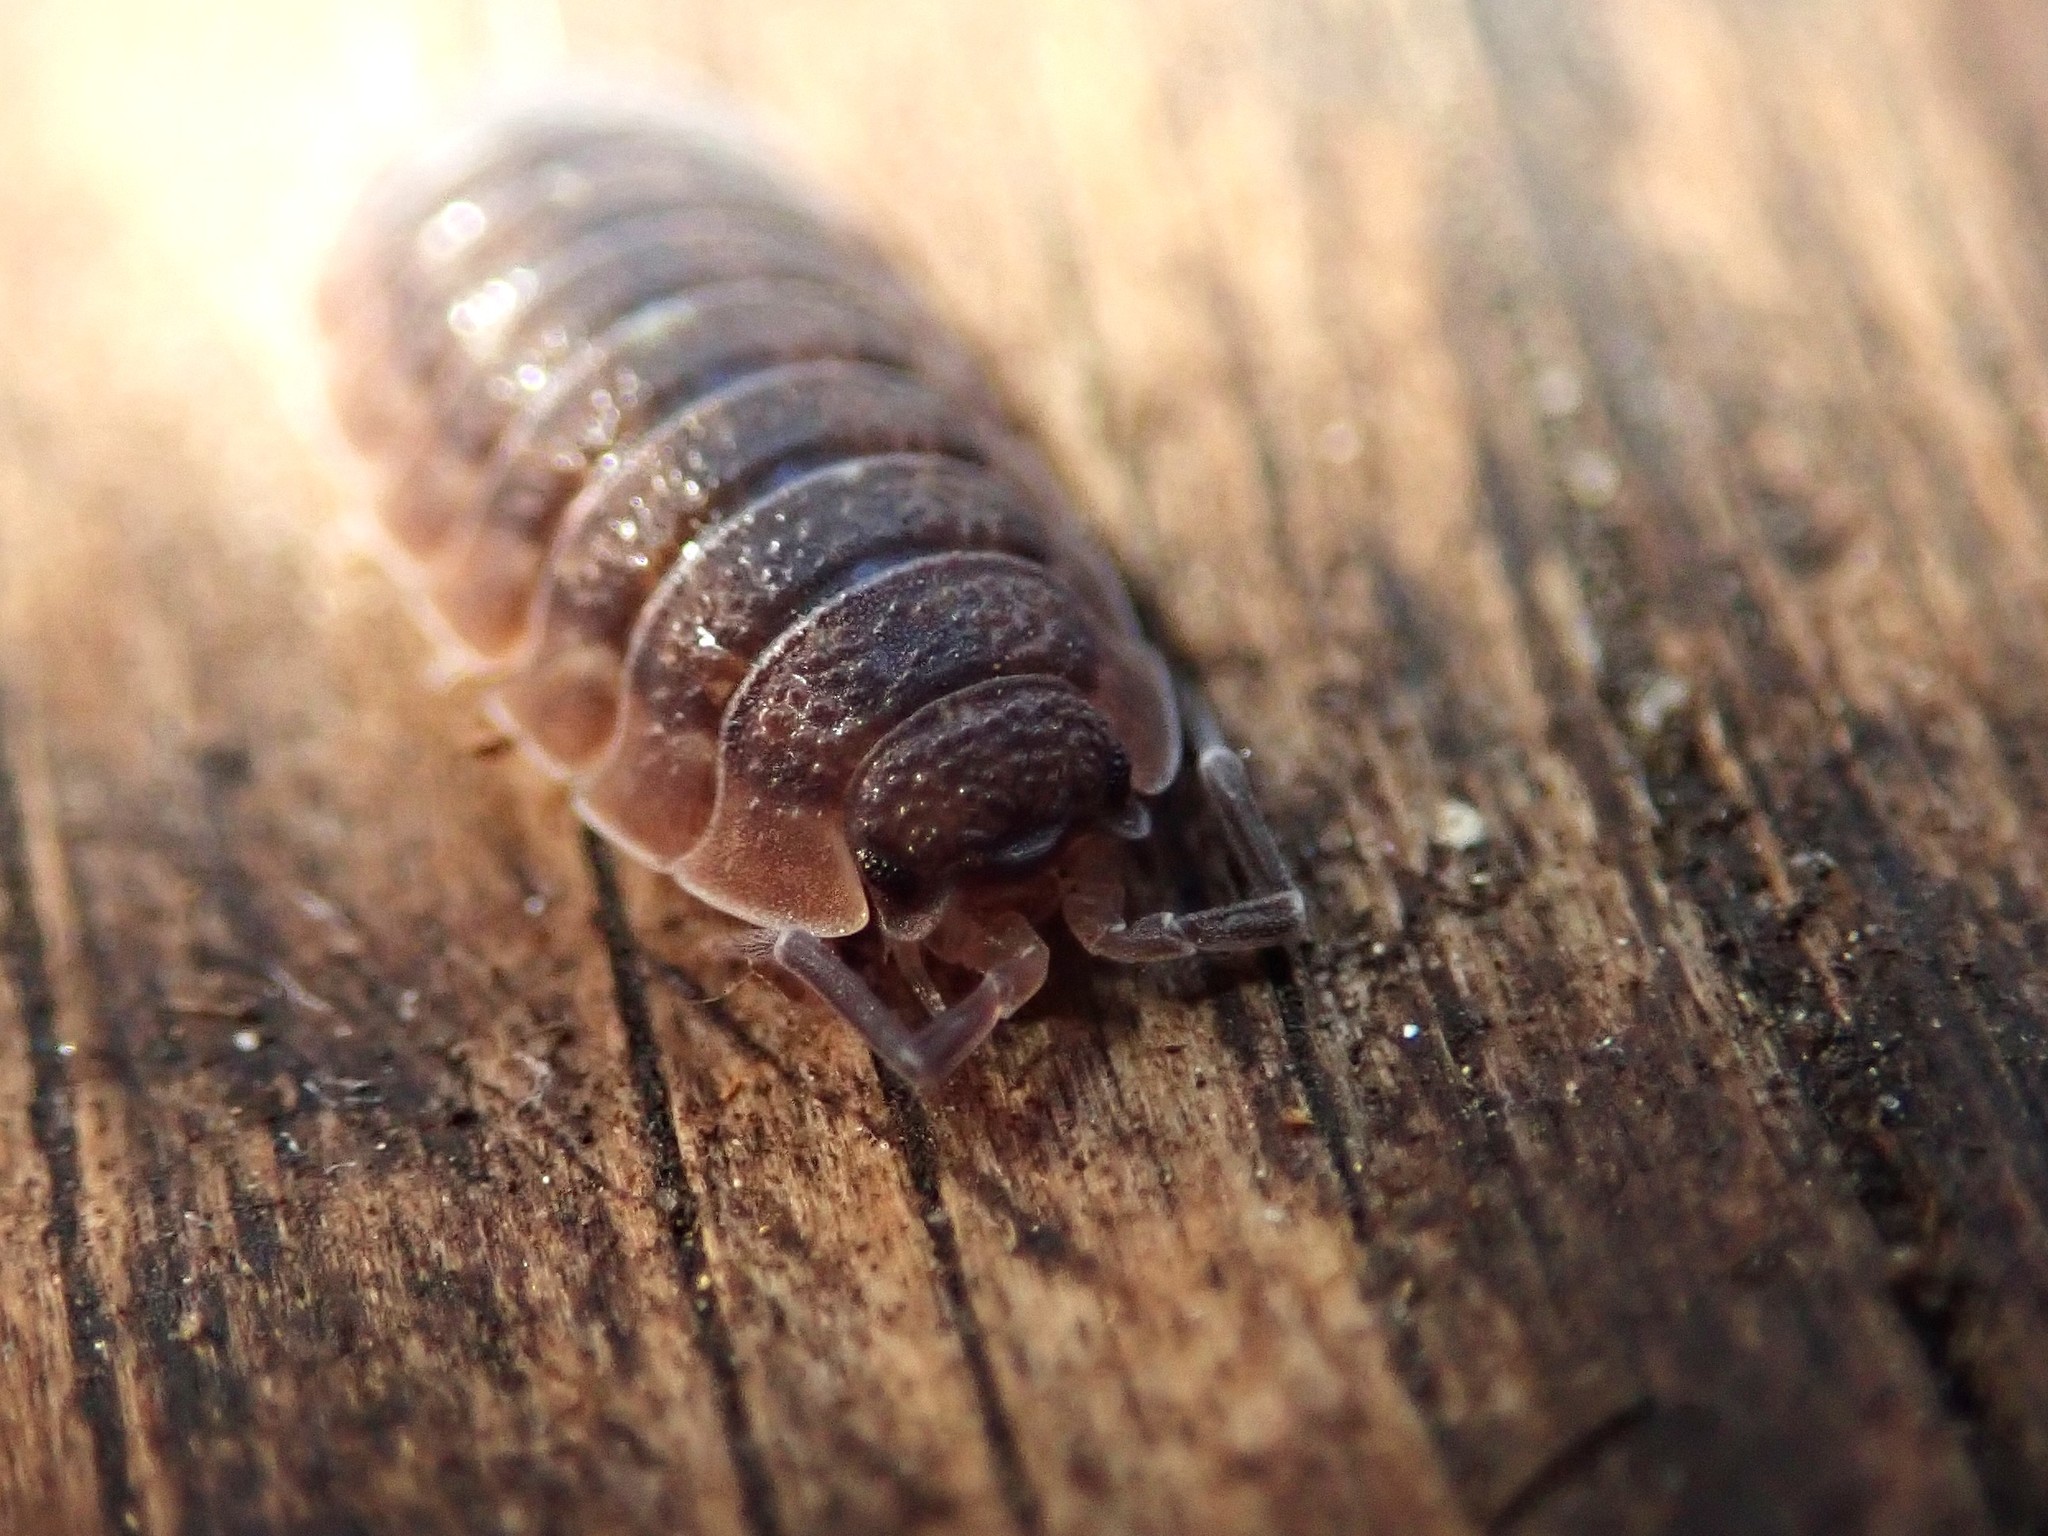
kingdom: Animalia
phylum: Arthropoda
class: Malacostraca
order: Isopoda
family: Porcellionidae
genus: Porcellio
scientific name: Porcellio scaber
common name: Common rough woodlouse
